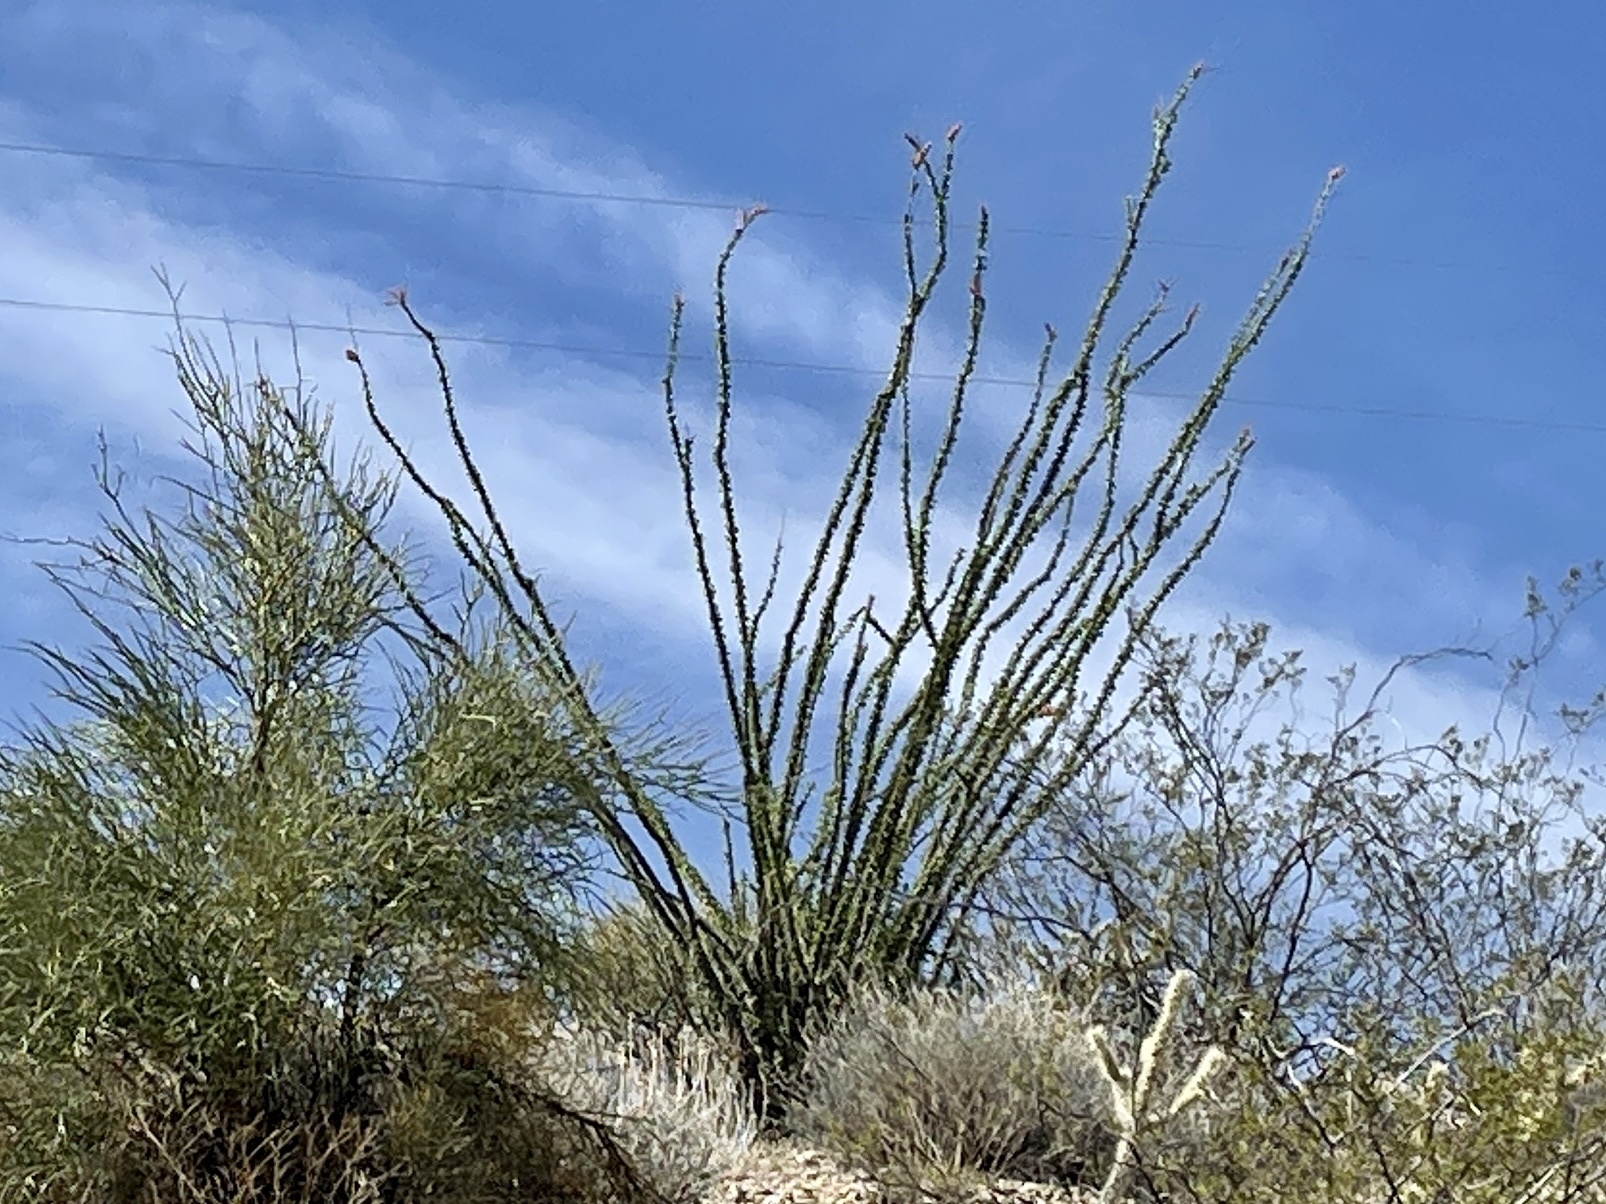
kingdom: Plantae
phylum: Tracheophyta
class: Magnoliopsida
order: Ericales
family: Fouquieriaceae
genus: Fouquieria
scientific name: Fouquieria splendens
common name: Vine-cactus
